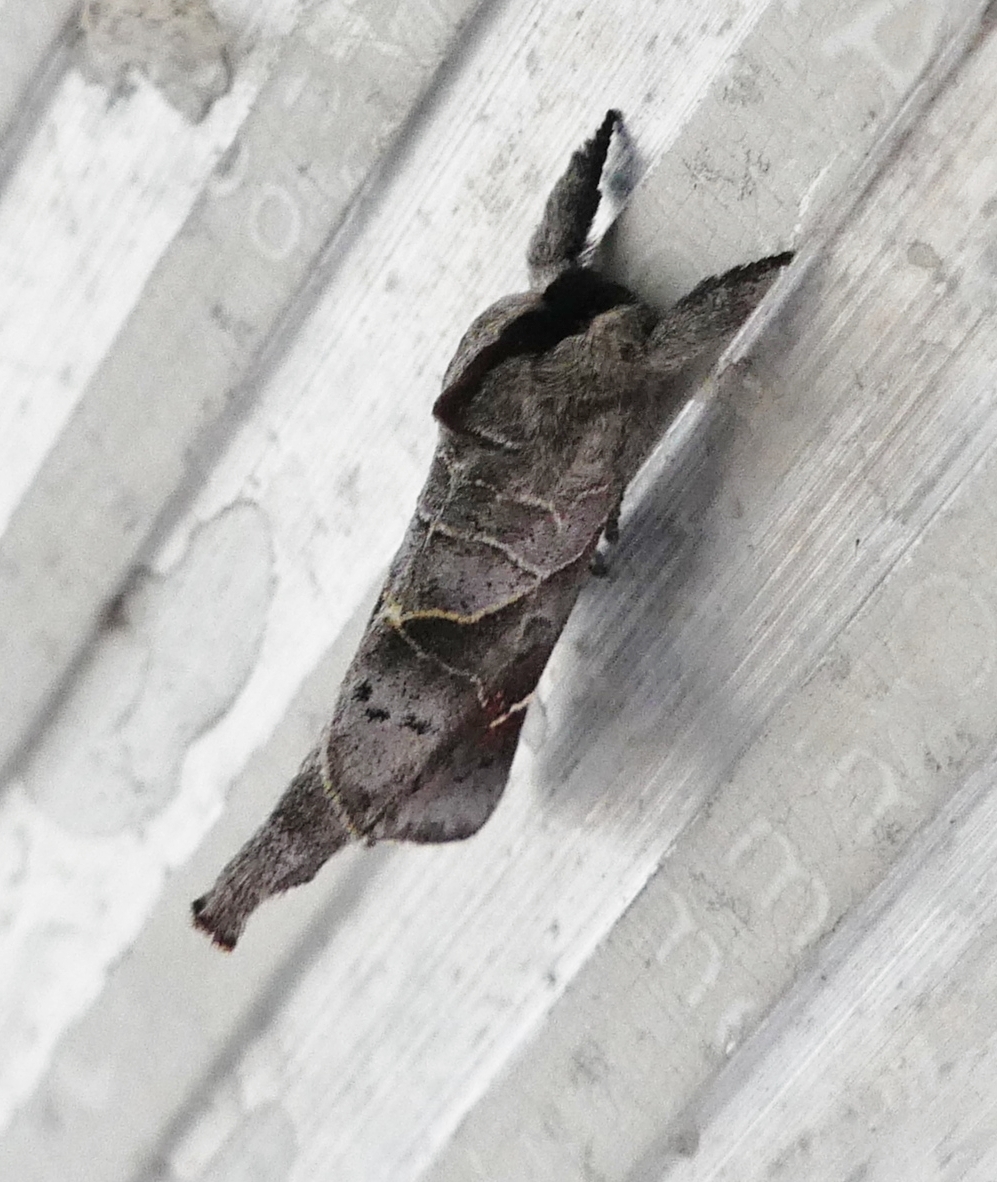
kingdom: Animalia
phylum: Arthropoda
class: Insecta
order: Lepidoptera
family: Notodontidae
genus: Clostera
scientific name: Clostera apicalis
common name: Apical prominent
